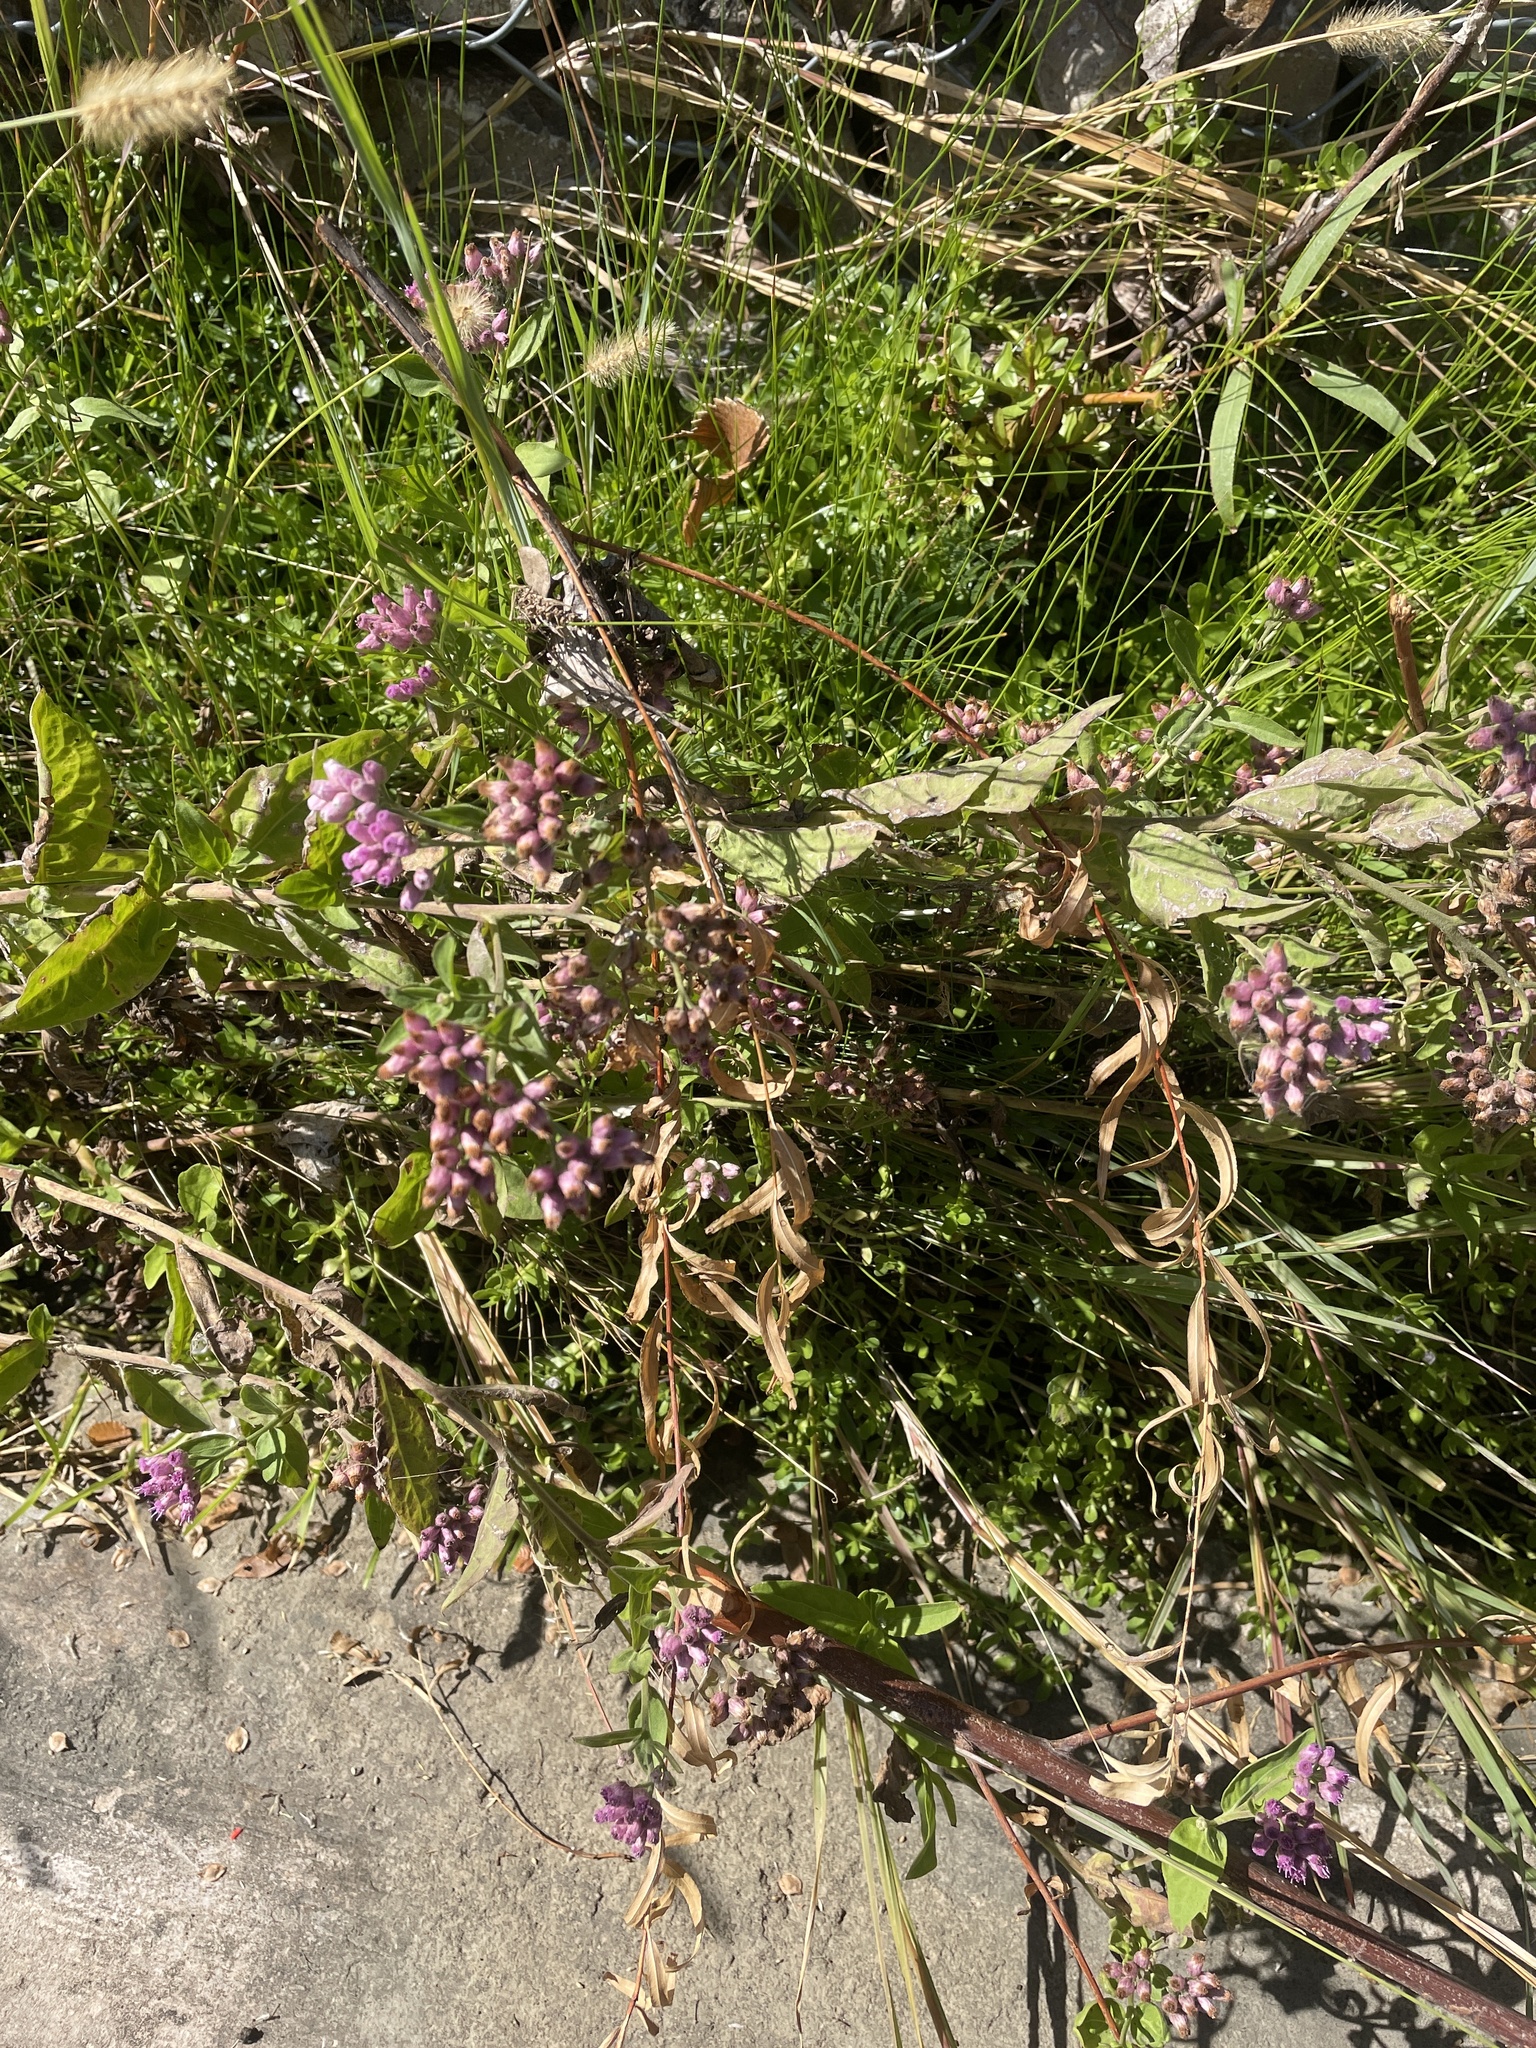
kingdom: Plantae
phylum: Tracheophyta
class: Magnoliopsida
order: Asterales
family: Asteraceae
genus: Pluchea
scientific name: Pluchea odorata
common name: Saltmarsh fleabane
